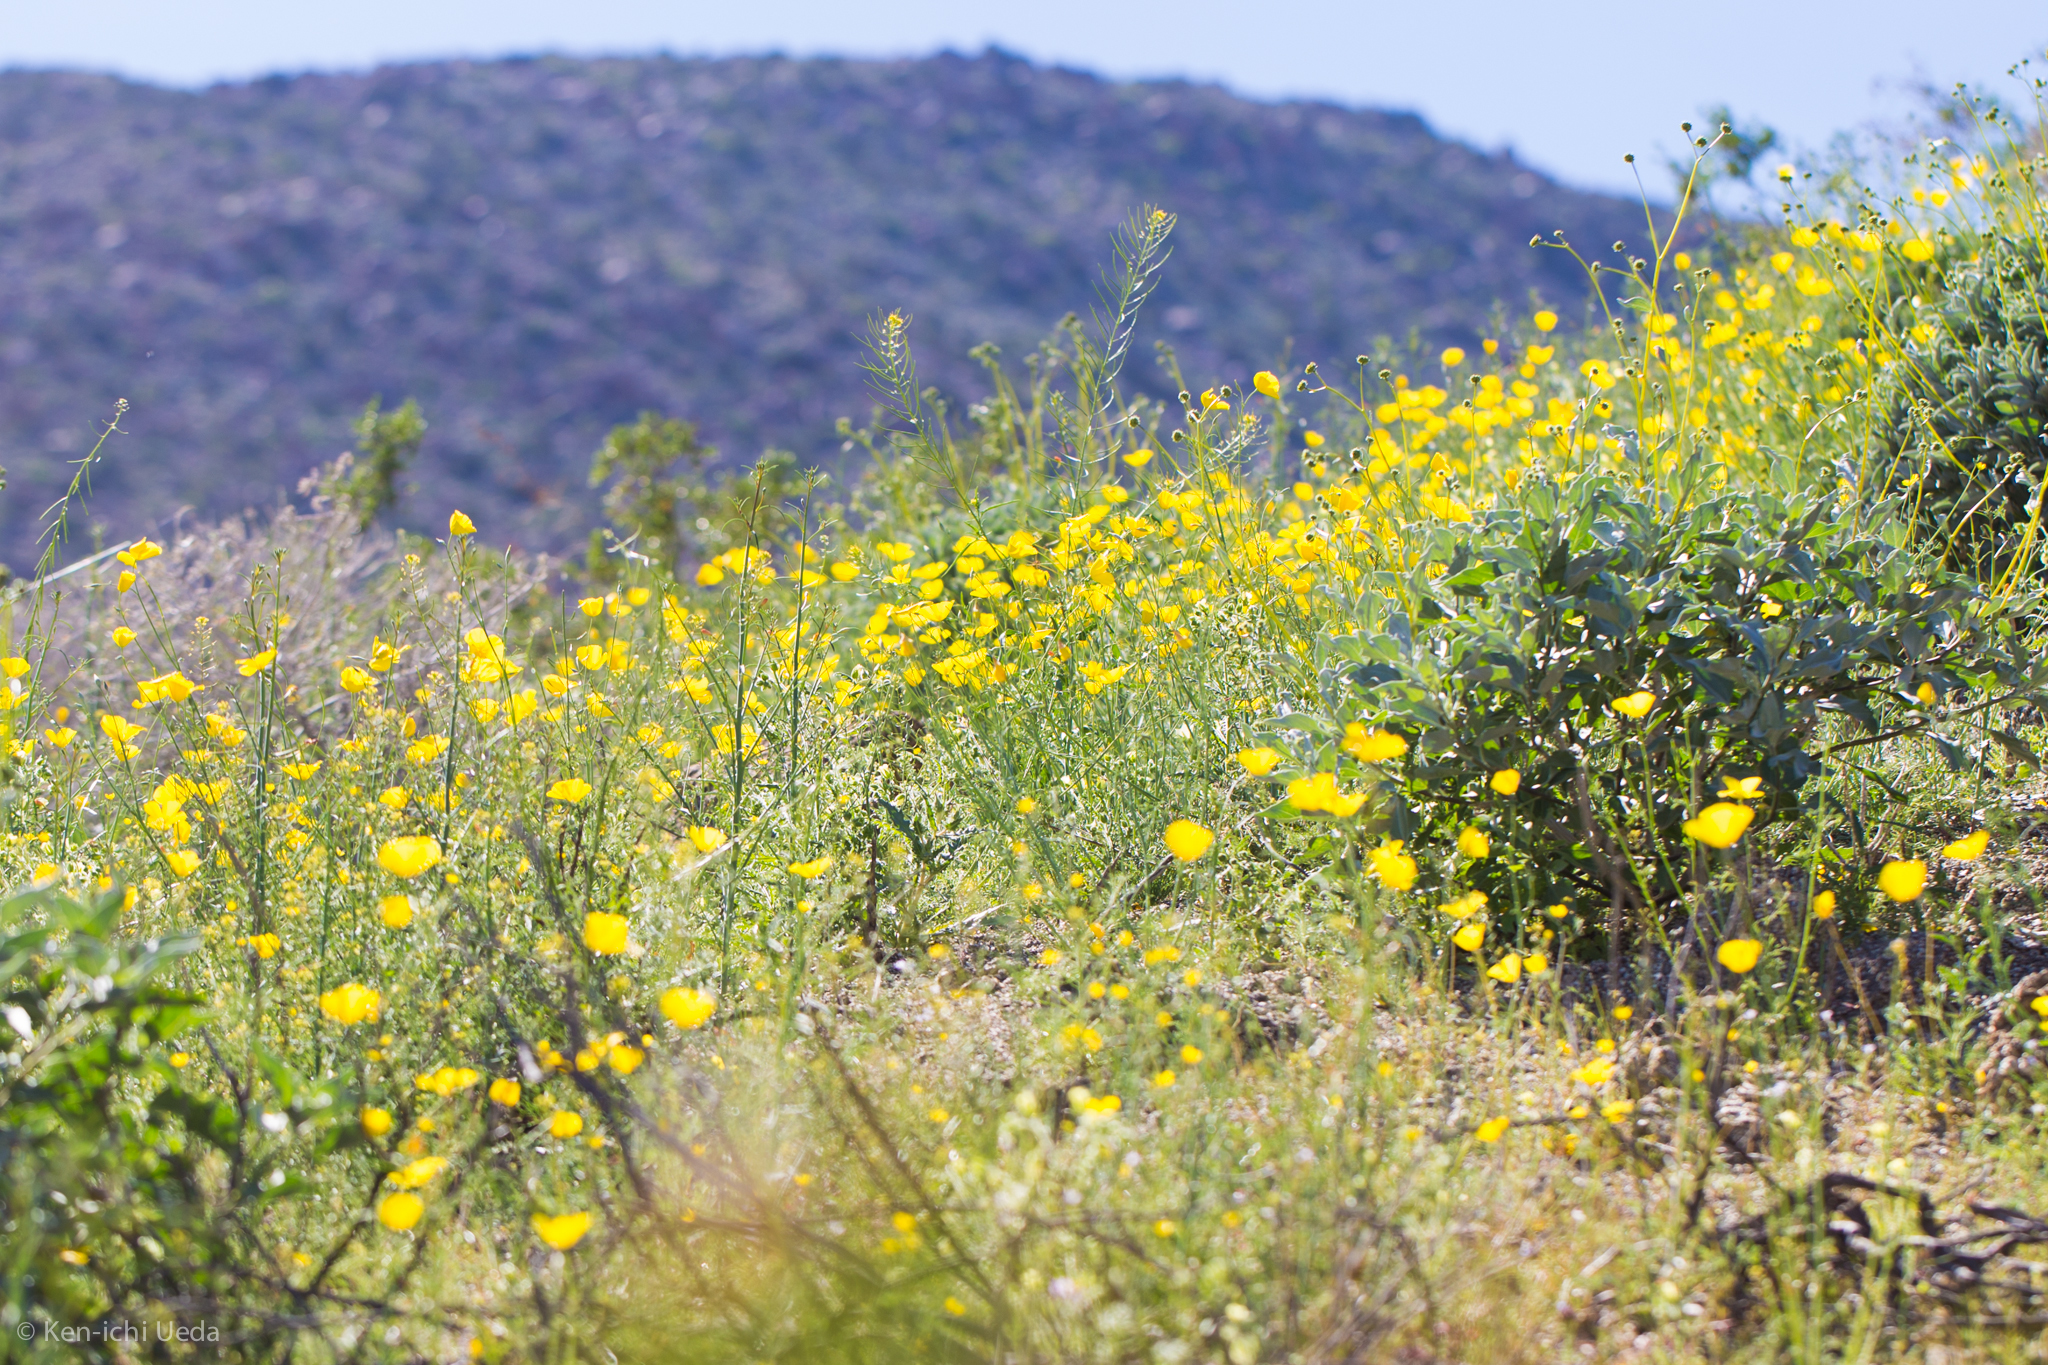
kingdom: Plantae
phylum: Tracheophyta
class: Magnoliopsida
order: Ranunculales
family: Papaveraceae
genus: Eschscholzia
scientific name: Eschscholzia parishii
